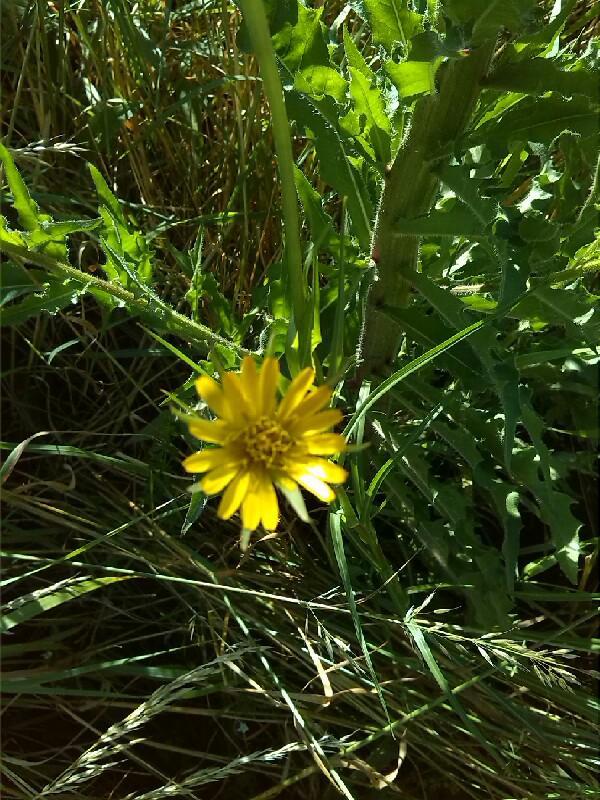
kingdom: Plantae
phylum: Tracheophyta
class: Magnoliopsida
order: Asterales
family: Asteraceae
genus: Tragopogon
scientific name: Tragopogon pratensis
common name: Goat's-beard
